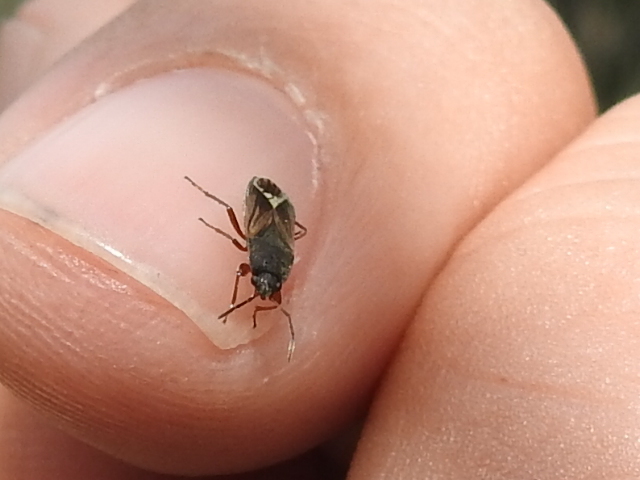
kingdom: Animalia
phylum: Arthropoda
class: Insecta
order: Hemiptera
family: Rhyparochromidae
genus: Malezonotus
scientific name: Malezonotus rufipes
